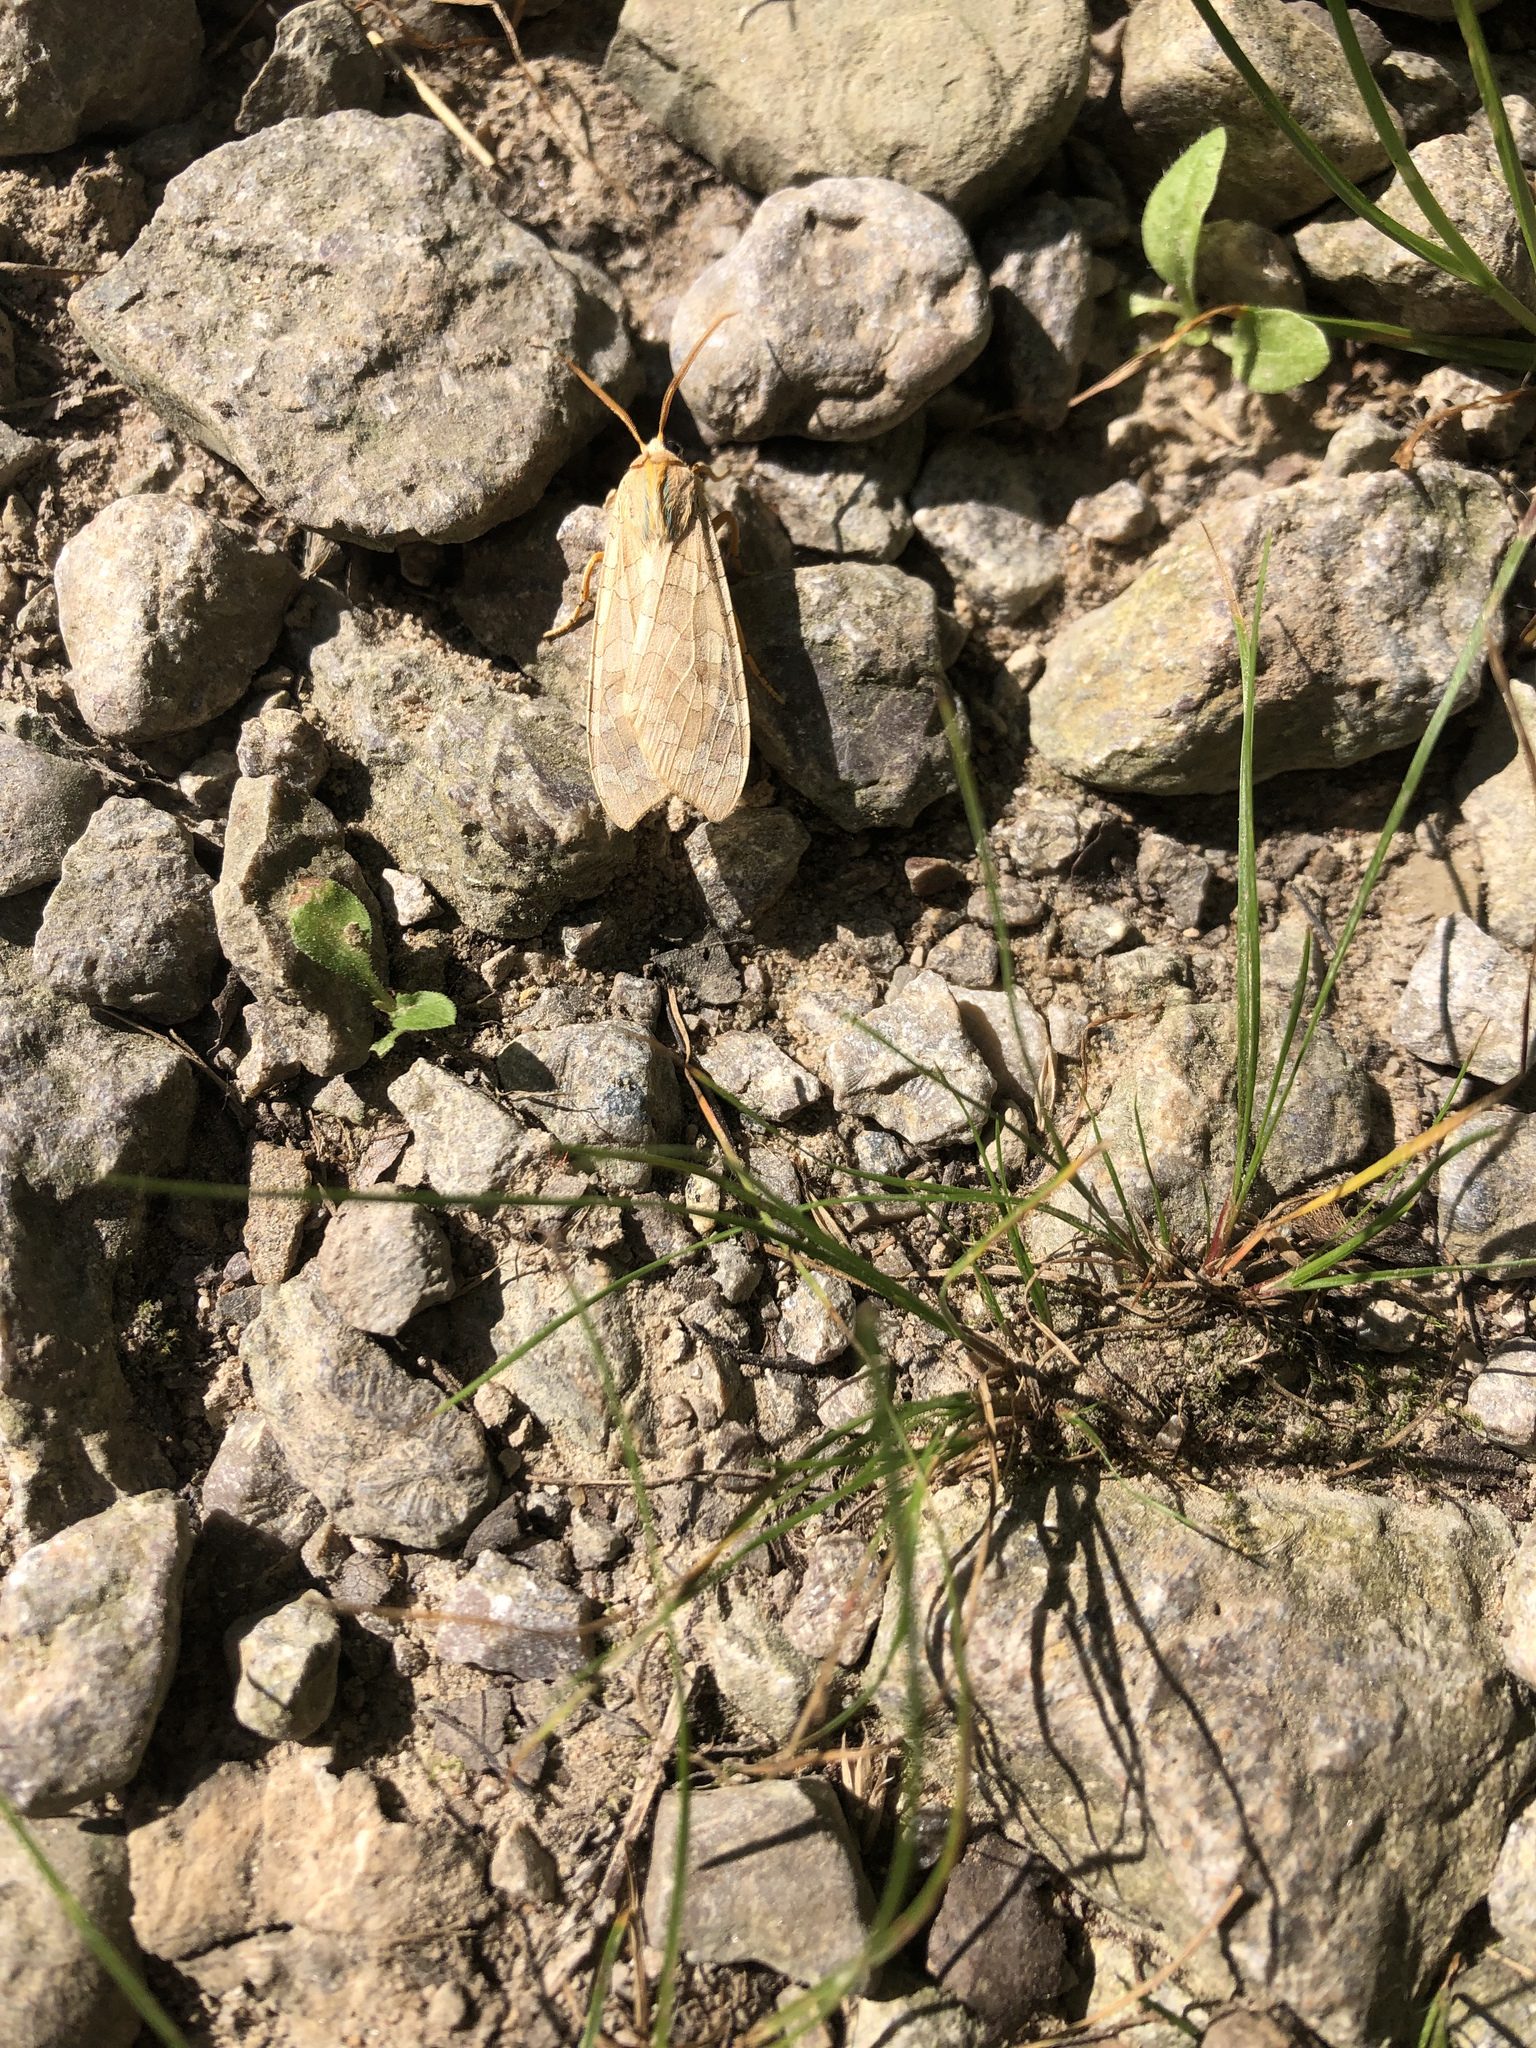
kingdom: Animalia
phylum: Arthropoda
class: Insecta
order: Lepidoptera
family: Erebidae
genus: Halysidota
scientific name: Halysidota
